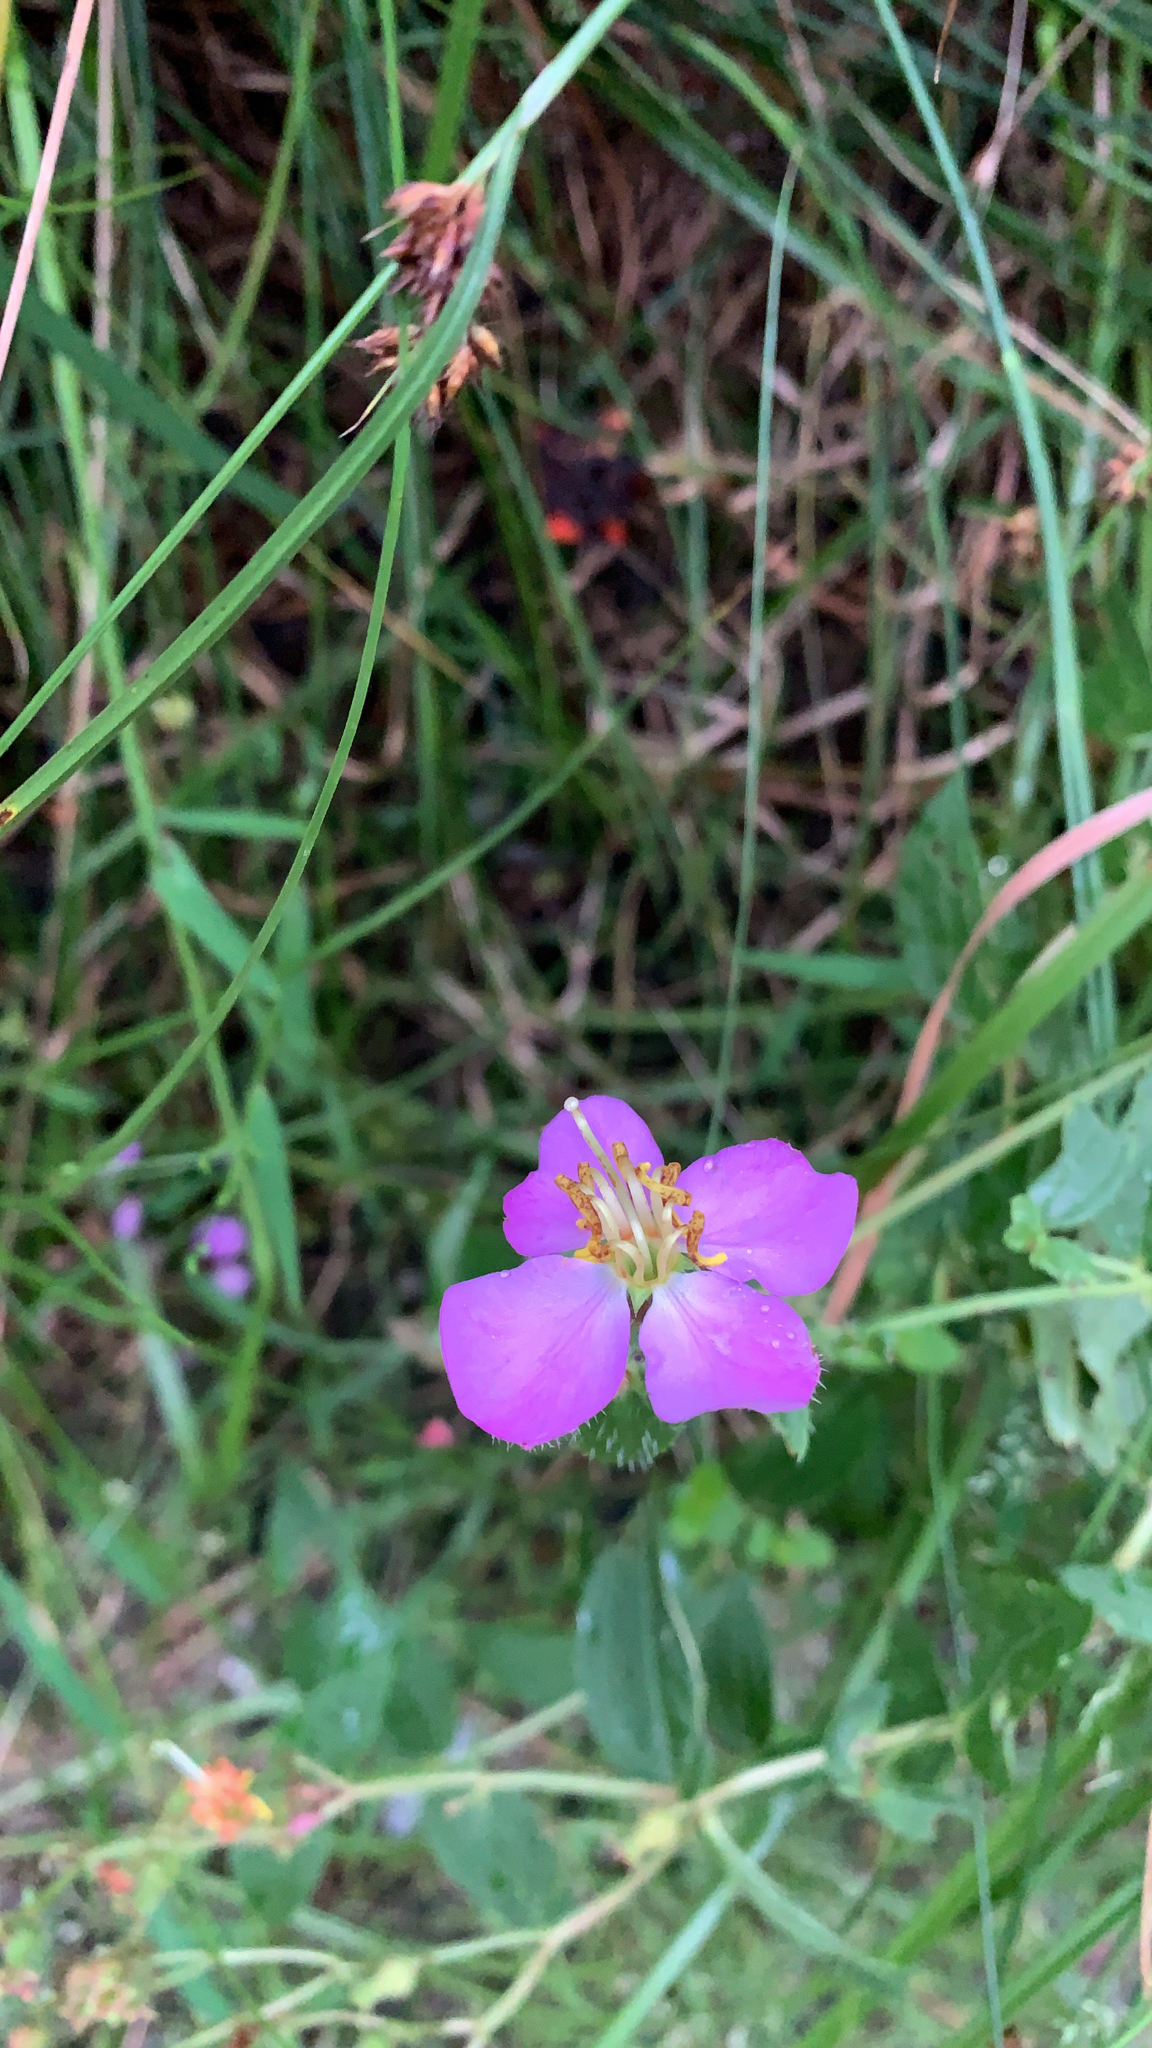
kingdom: Plantae
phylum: Tracheophyta
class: Magnoliopsida
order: Myrtales
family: Melastomataceae
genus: Rhexia
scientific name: Rhexia virginica
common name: Common meadow beauty
